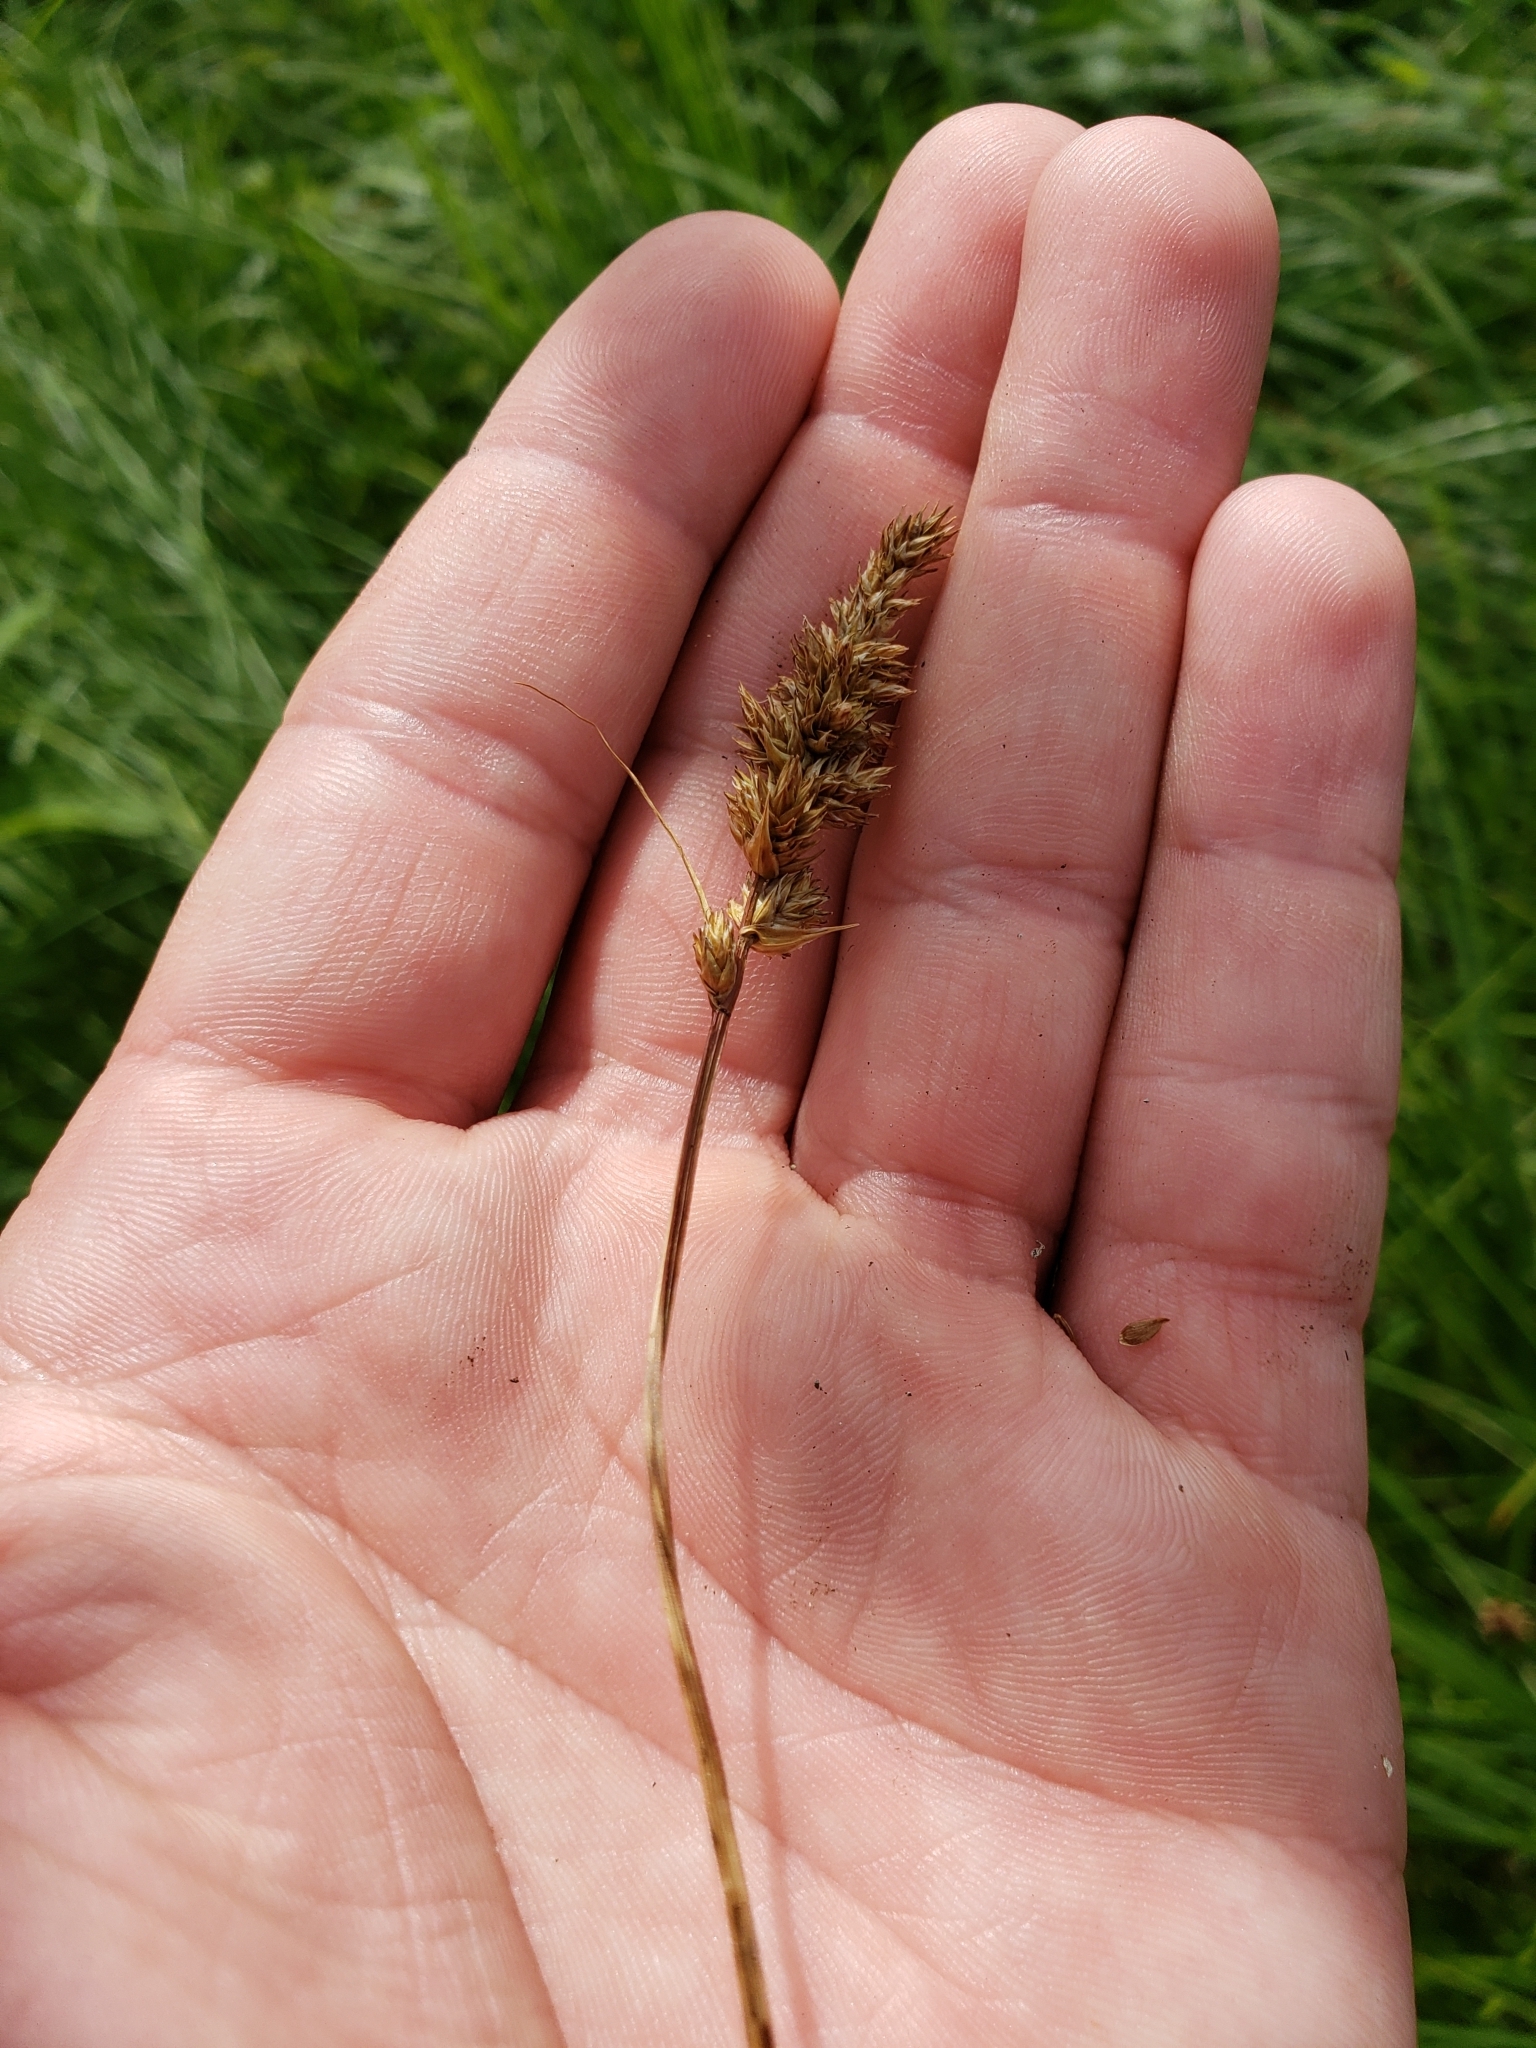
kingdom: Plantae
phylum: Tracheophyta
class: Liliopsida
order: Poales
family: Cyperaceae
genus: Carex
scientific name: Carex praegracilis
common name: Black creeper sedge
